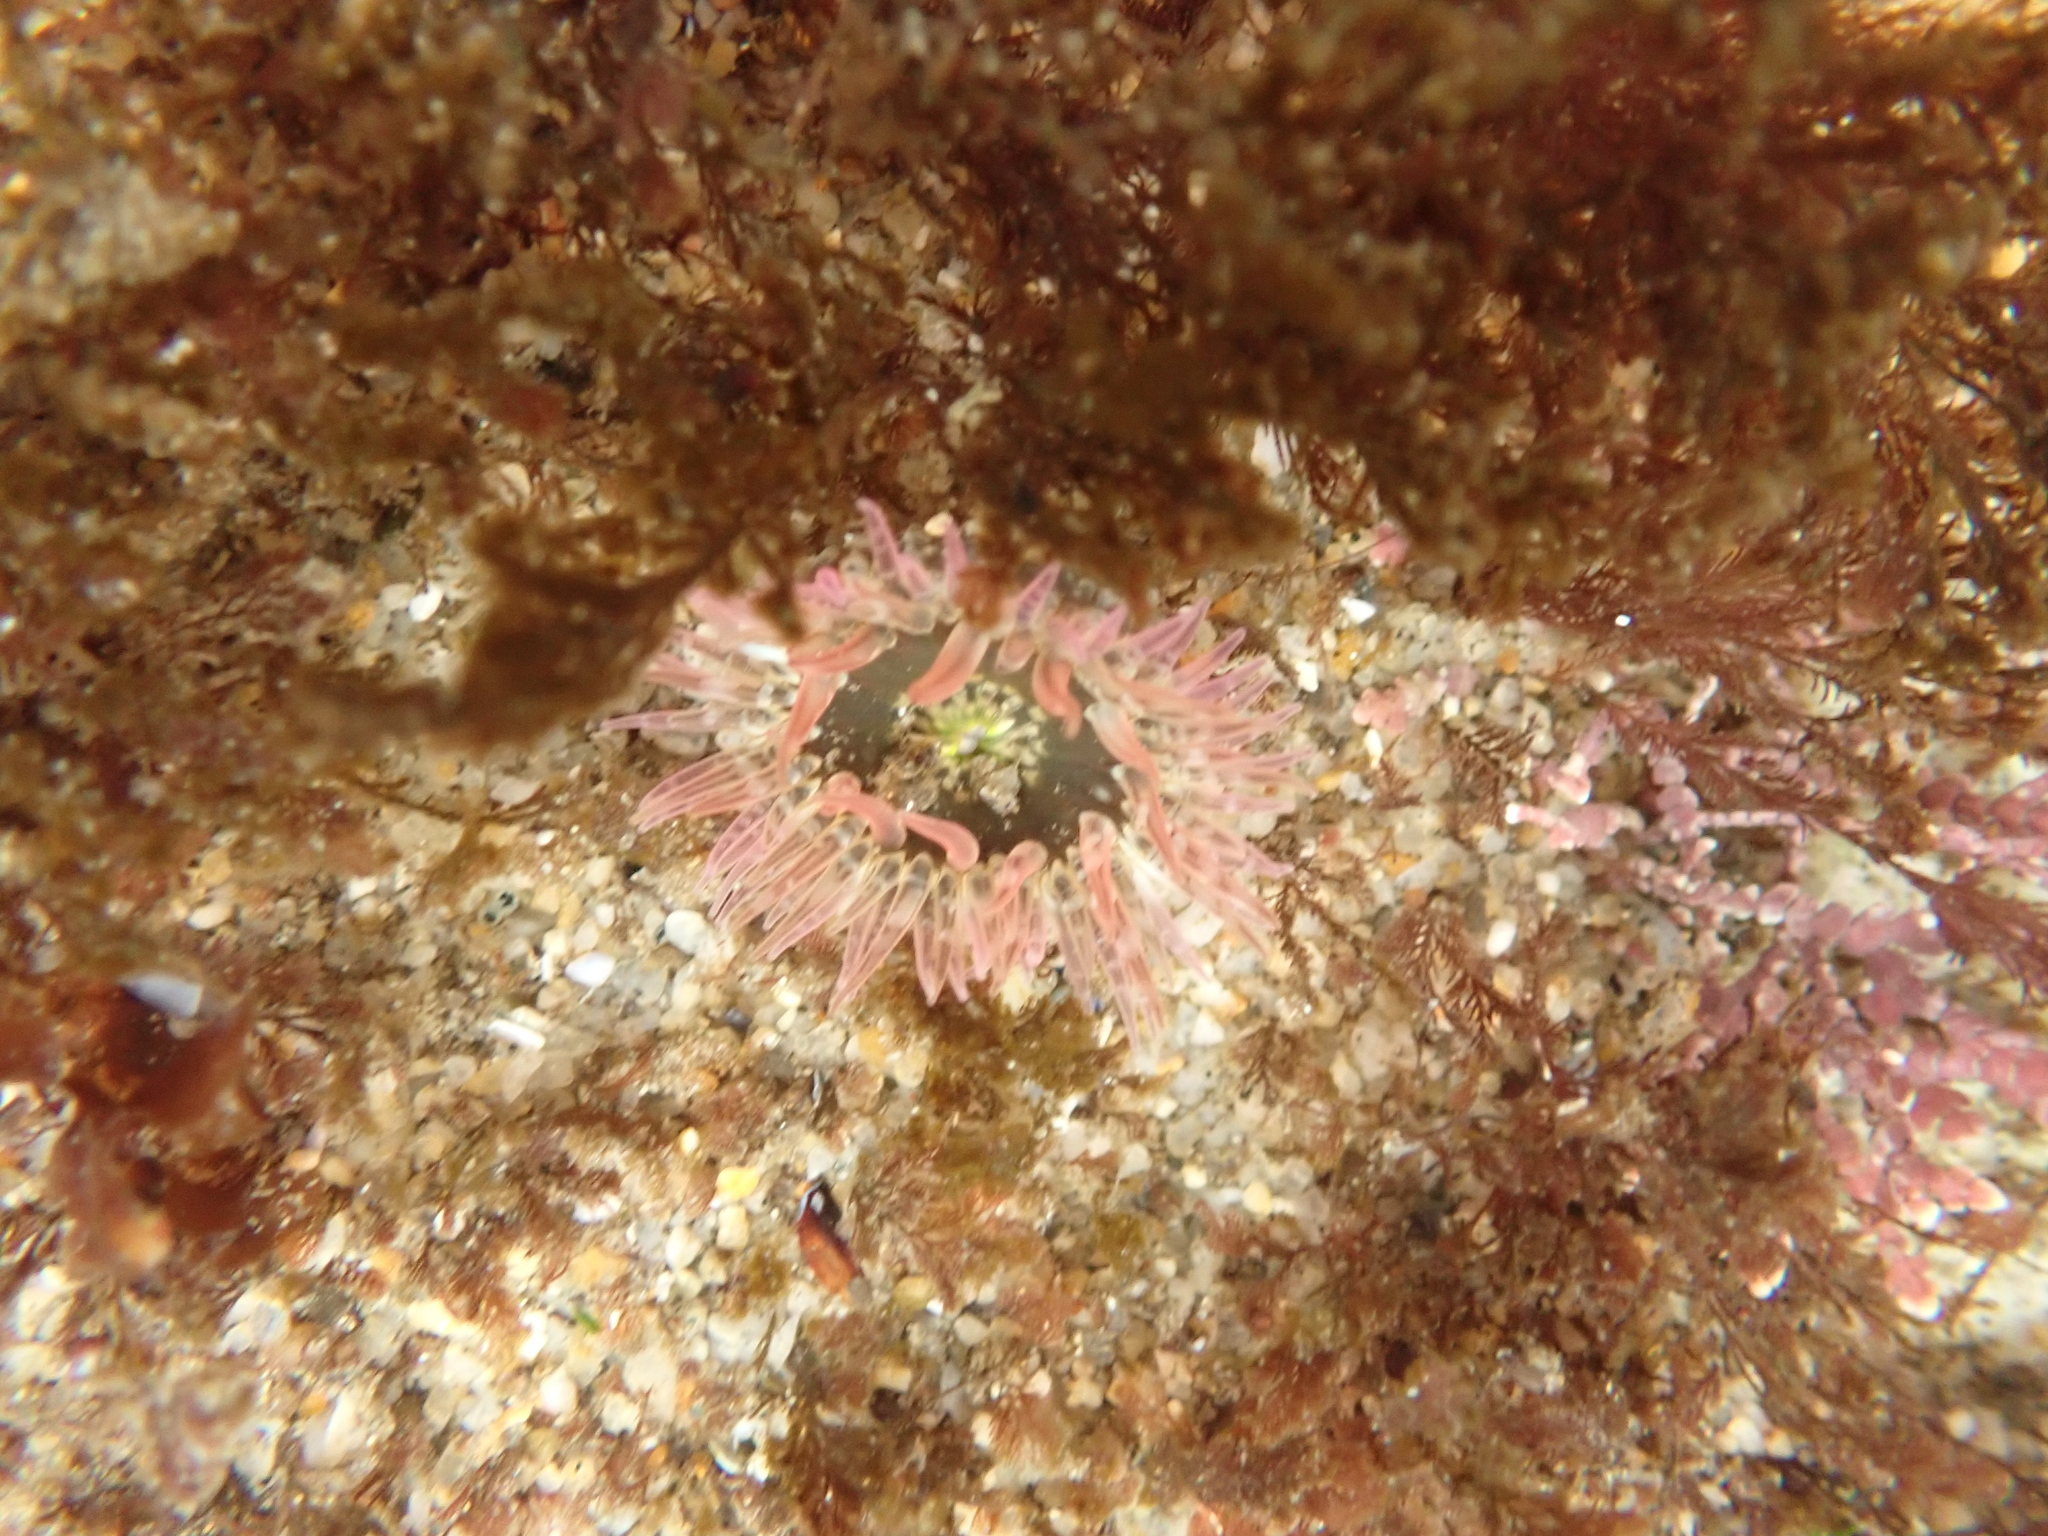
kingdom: Animalia
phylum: Cnidaria
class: Anthozoa
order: Actiniaria
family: Actiniidae
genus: Anthopleura
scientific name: Anthopleura artemisia
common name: Buried sea anemone
